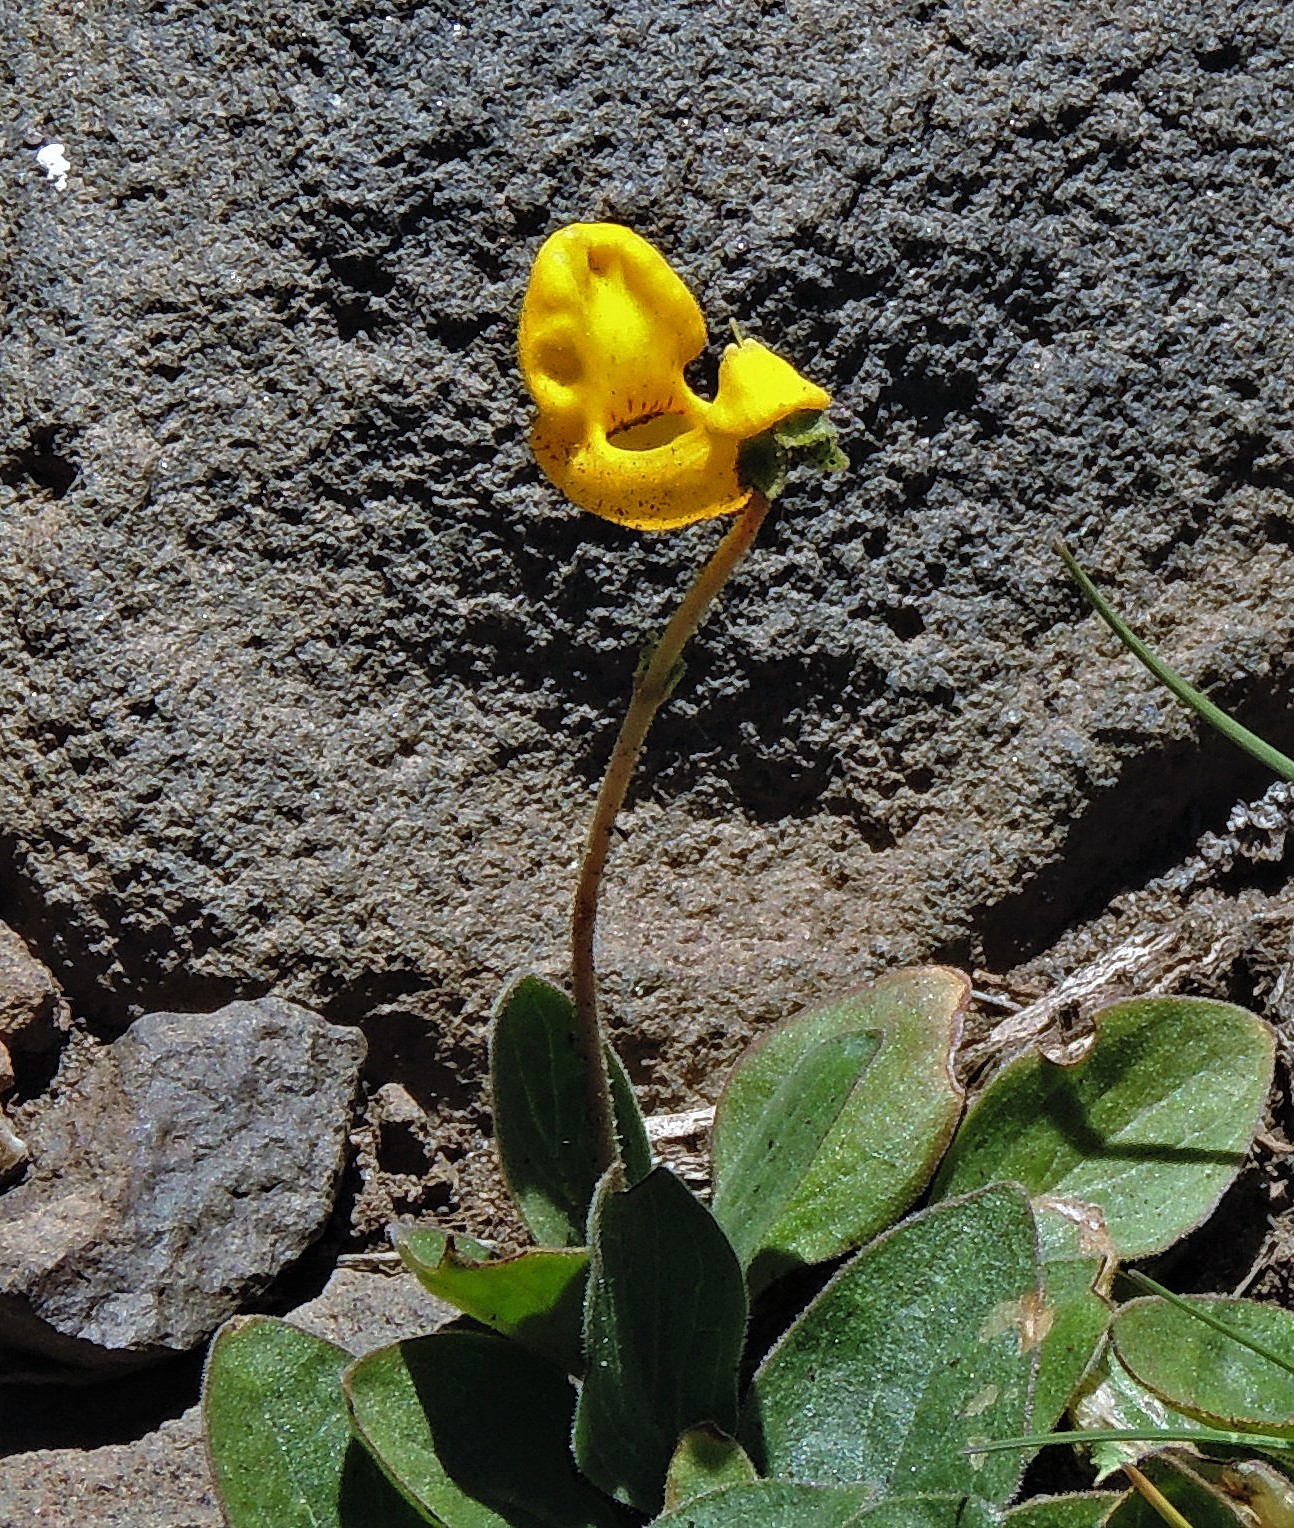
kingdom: Plantae
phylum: Tracheophyta
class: Magnoliopsida
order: Lamiales
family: Calceolariaceae
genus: Calceolaria
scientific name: Calceolaria polyrhiza
